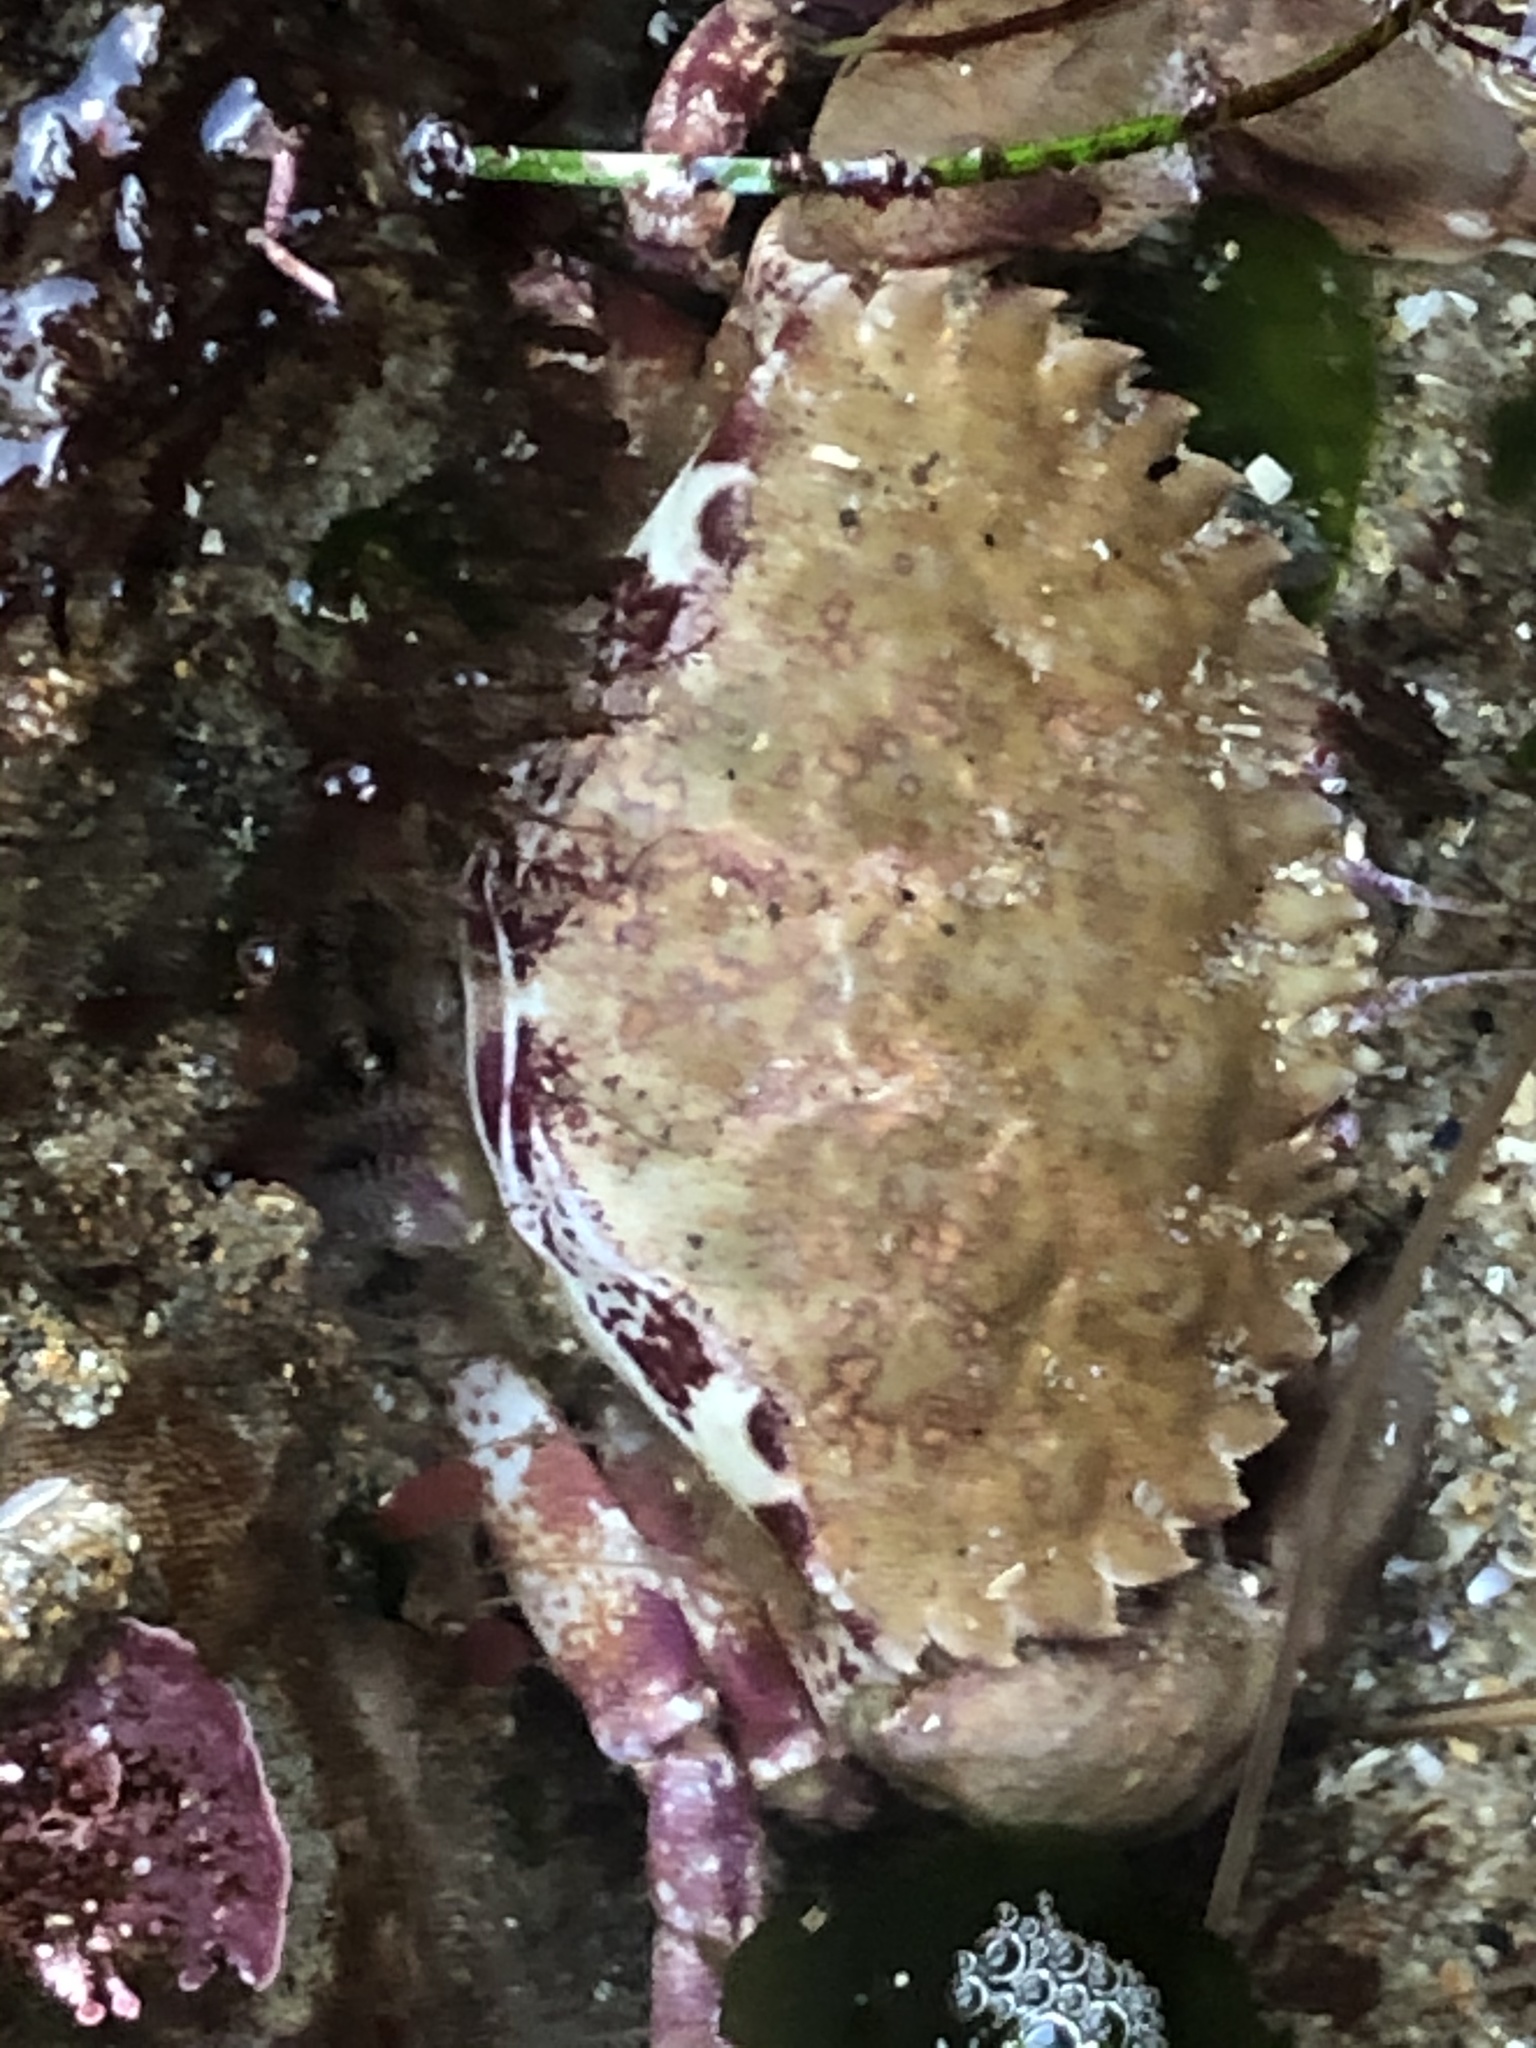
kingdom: Animalia
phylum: Arthropoda
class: Malacostraca
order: Decapoda
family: Cancridae
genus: Romaleon
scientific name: Romaleon antennarium
